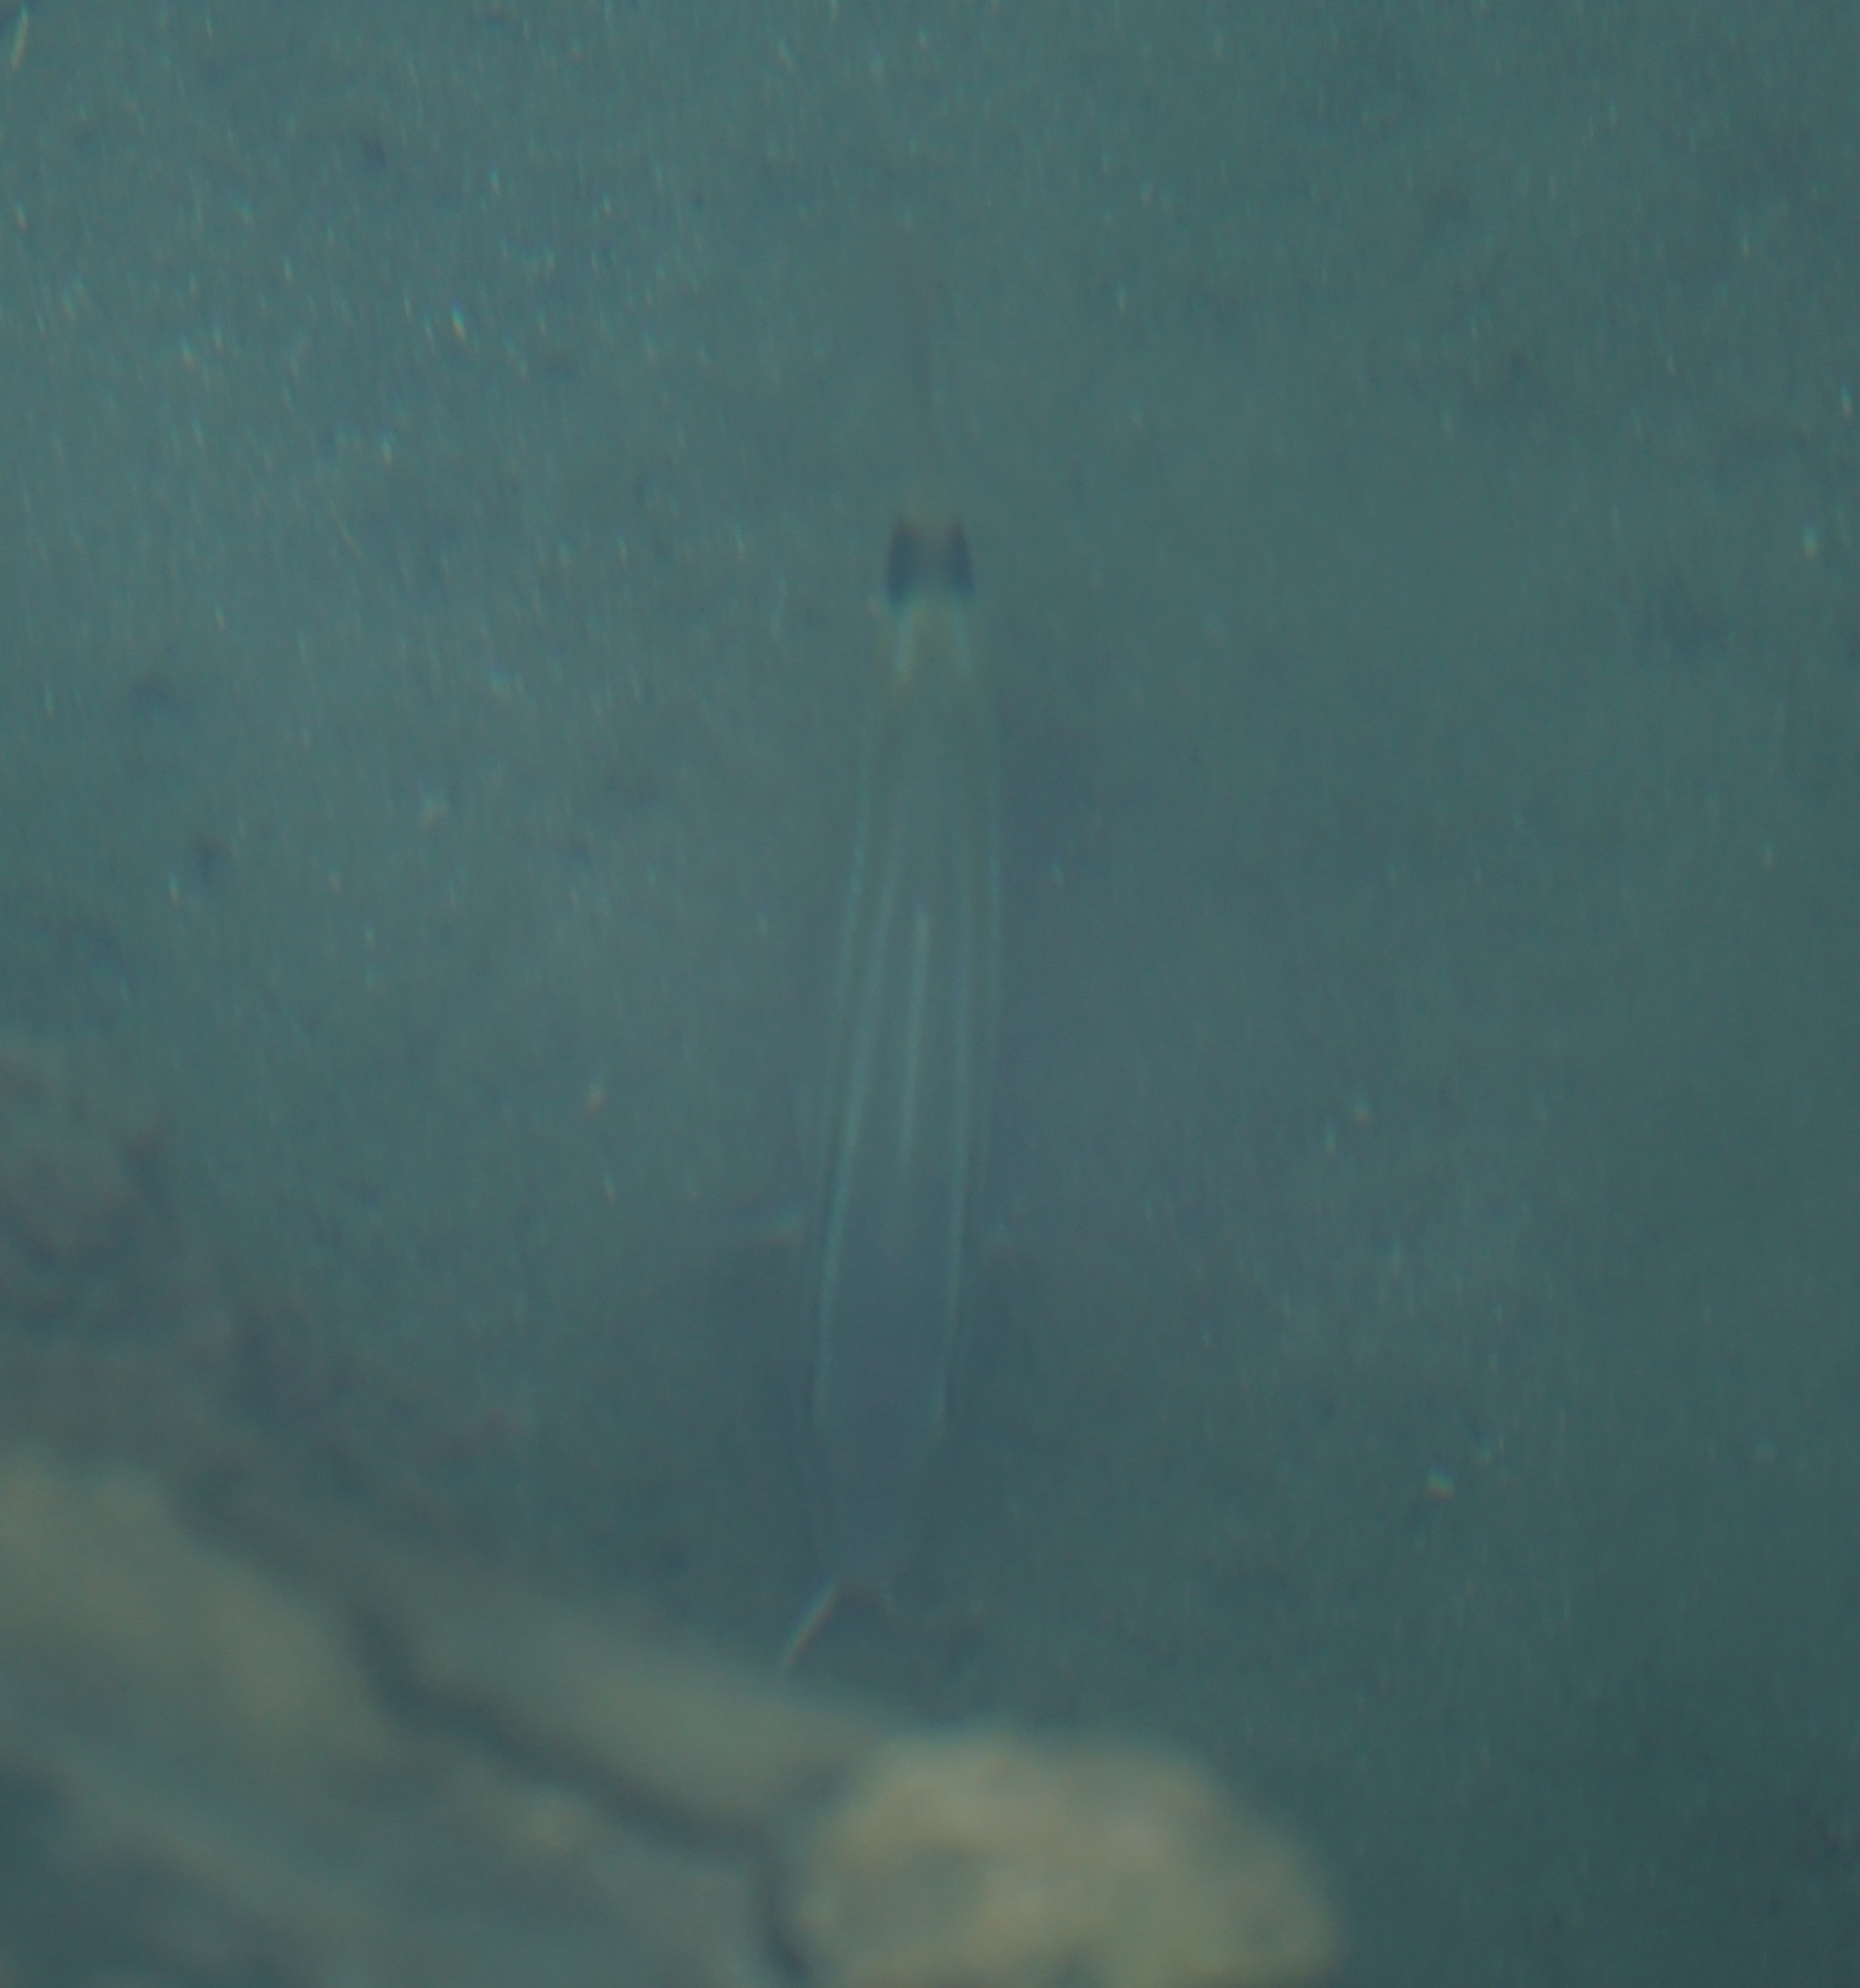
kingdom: Animalia
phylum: Chordata
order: Perciformes
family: Mullidae
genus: Parupeneus
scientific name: Parupeneus spilurus
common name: Blackspot goatfish
